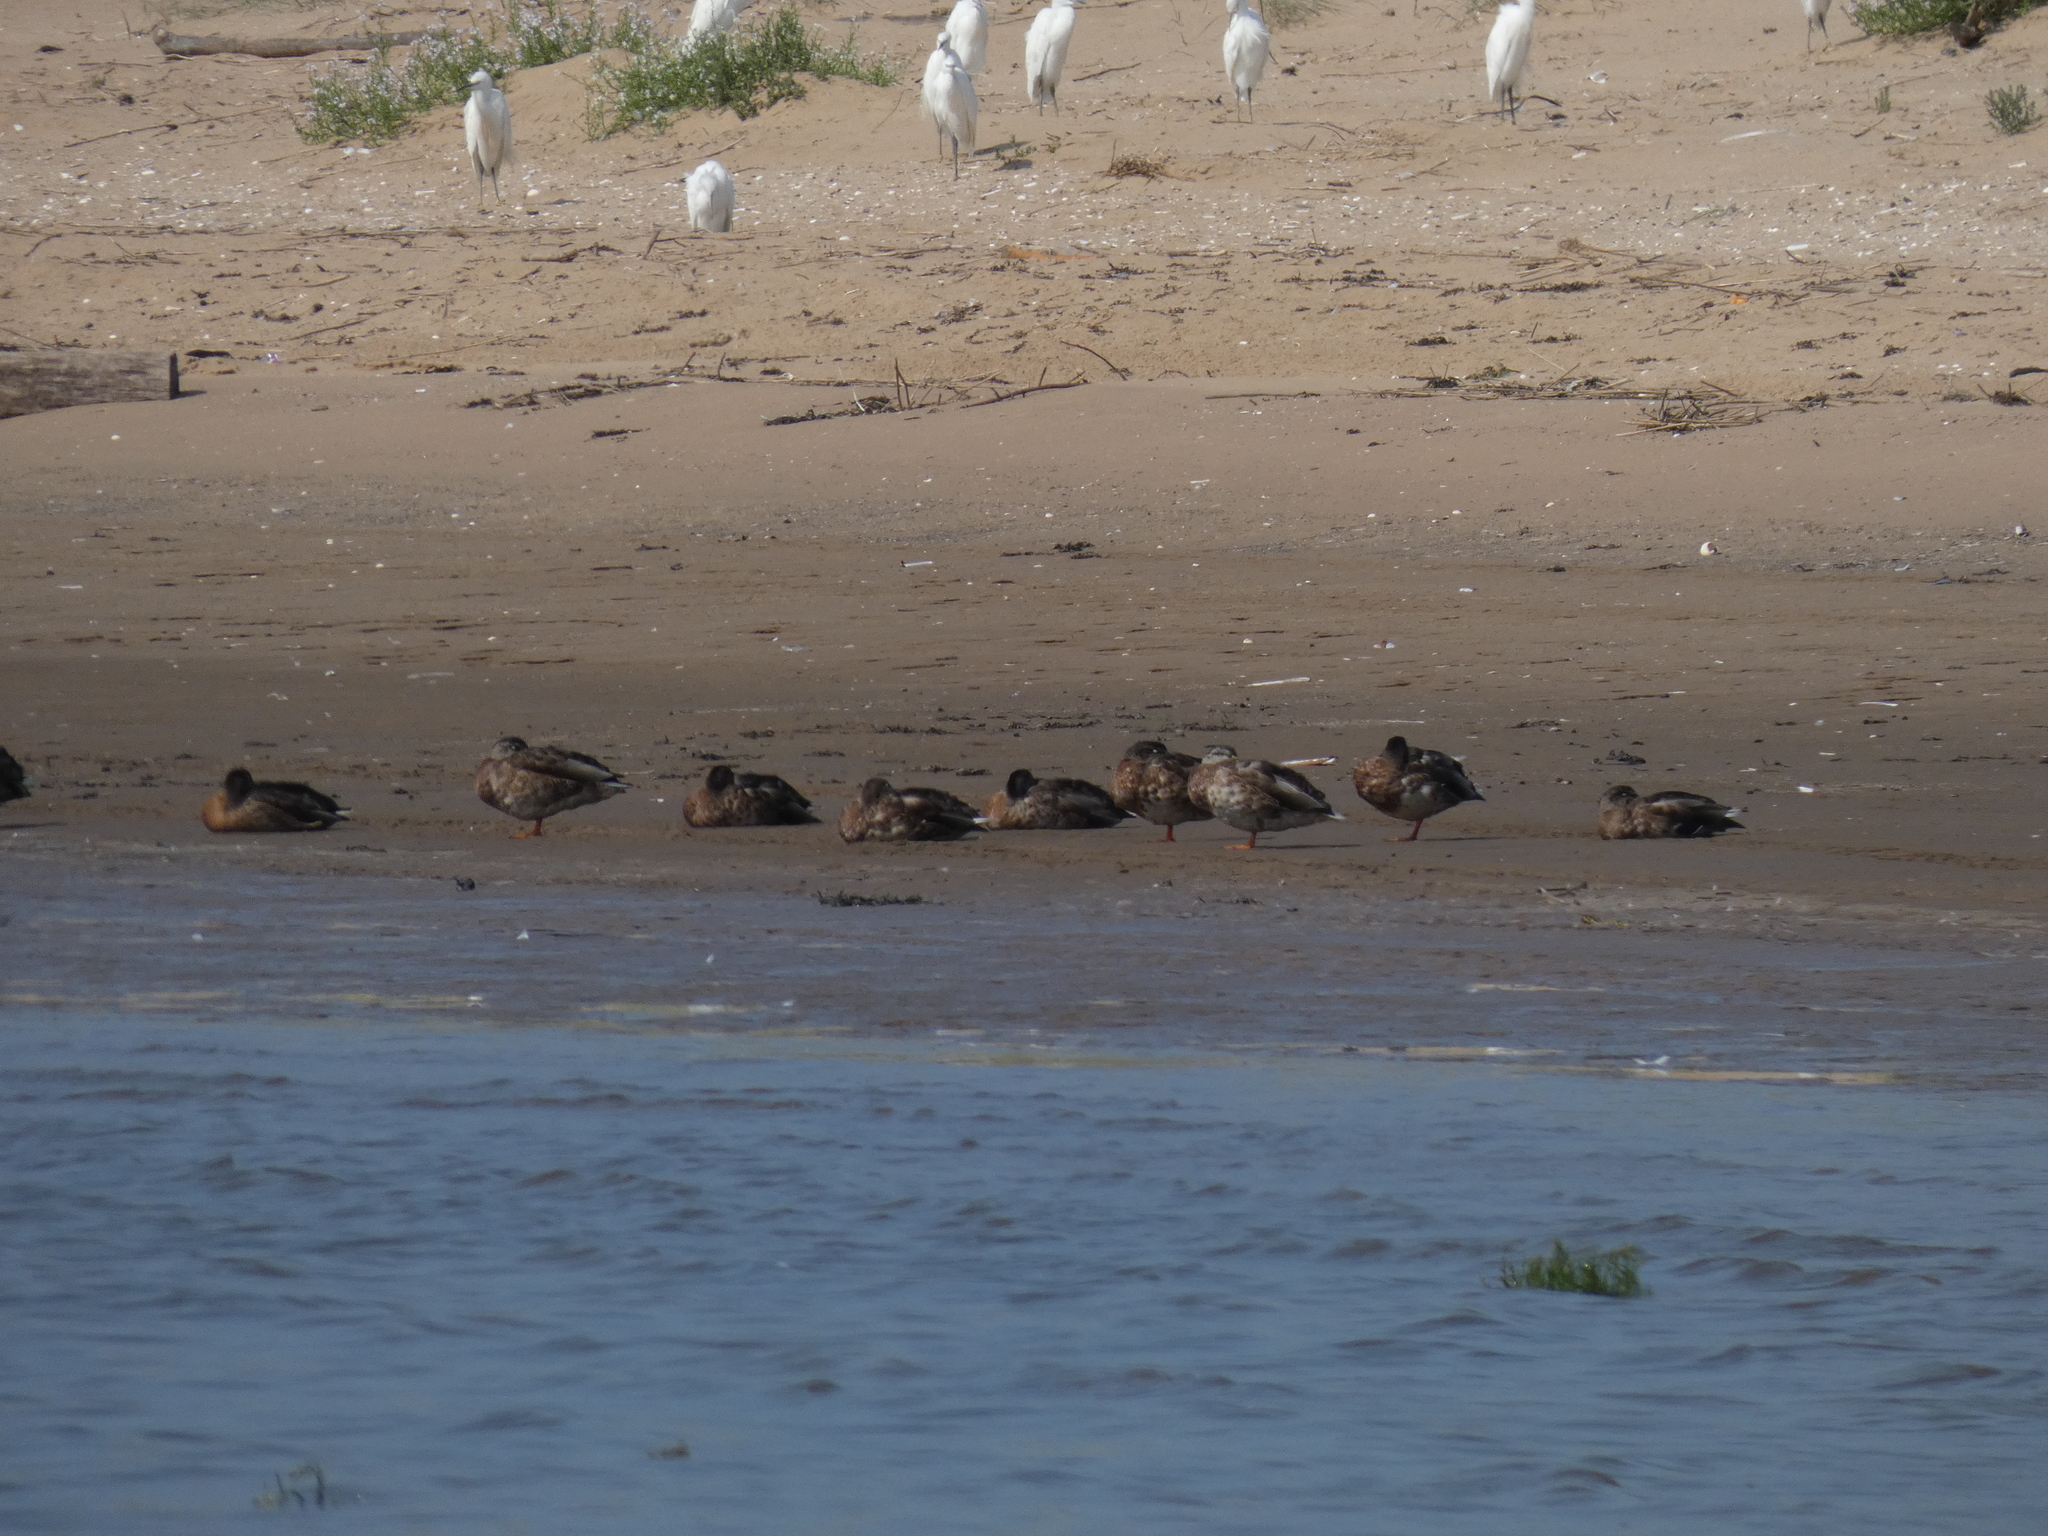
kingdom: Animalia
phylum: Chordata
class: Aves
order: Anseriformes
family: Anatidae
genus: Anas
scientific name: Anas platyrhynchos
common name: Mallard
